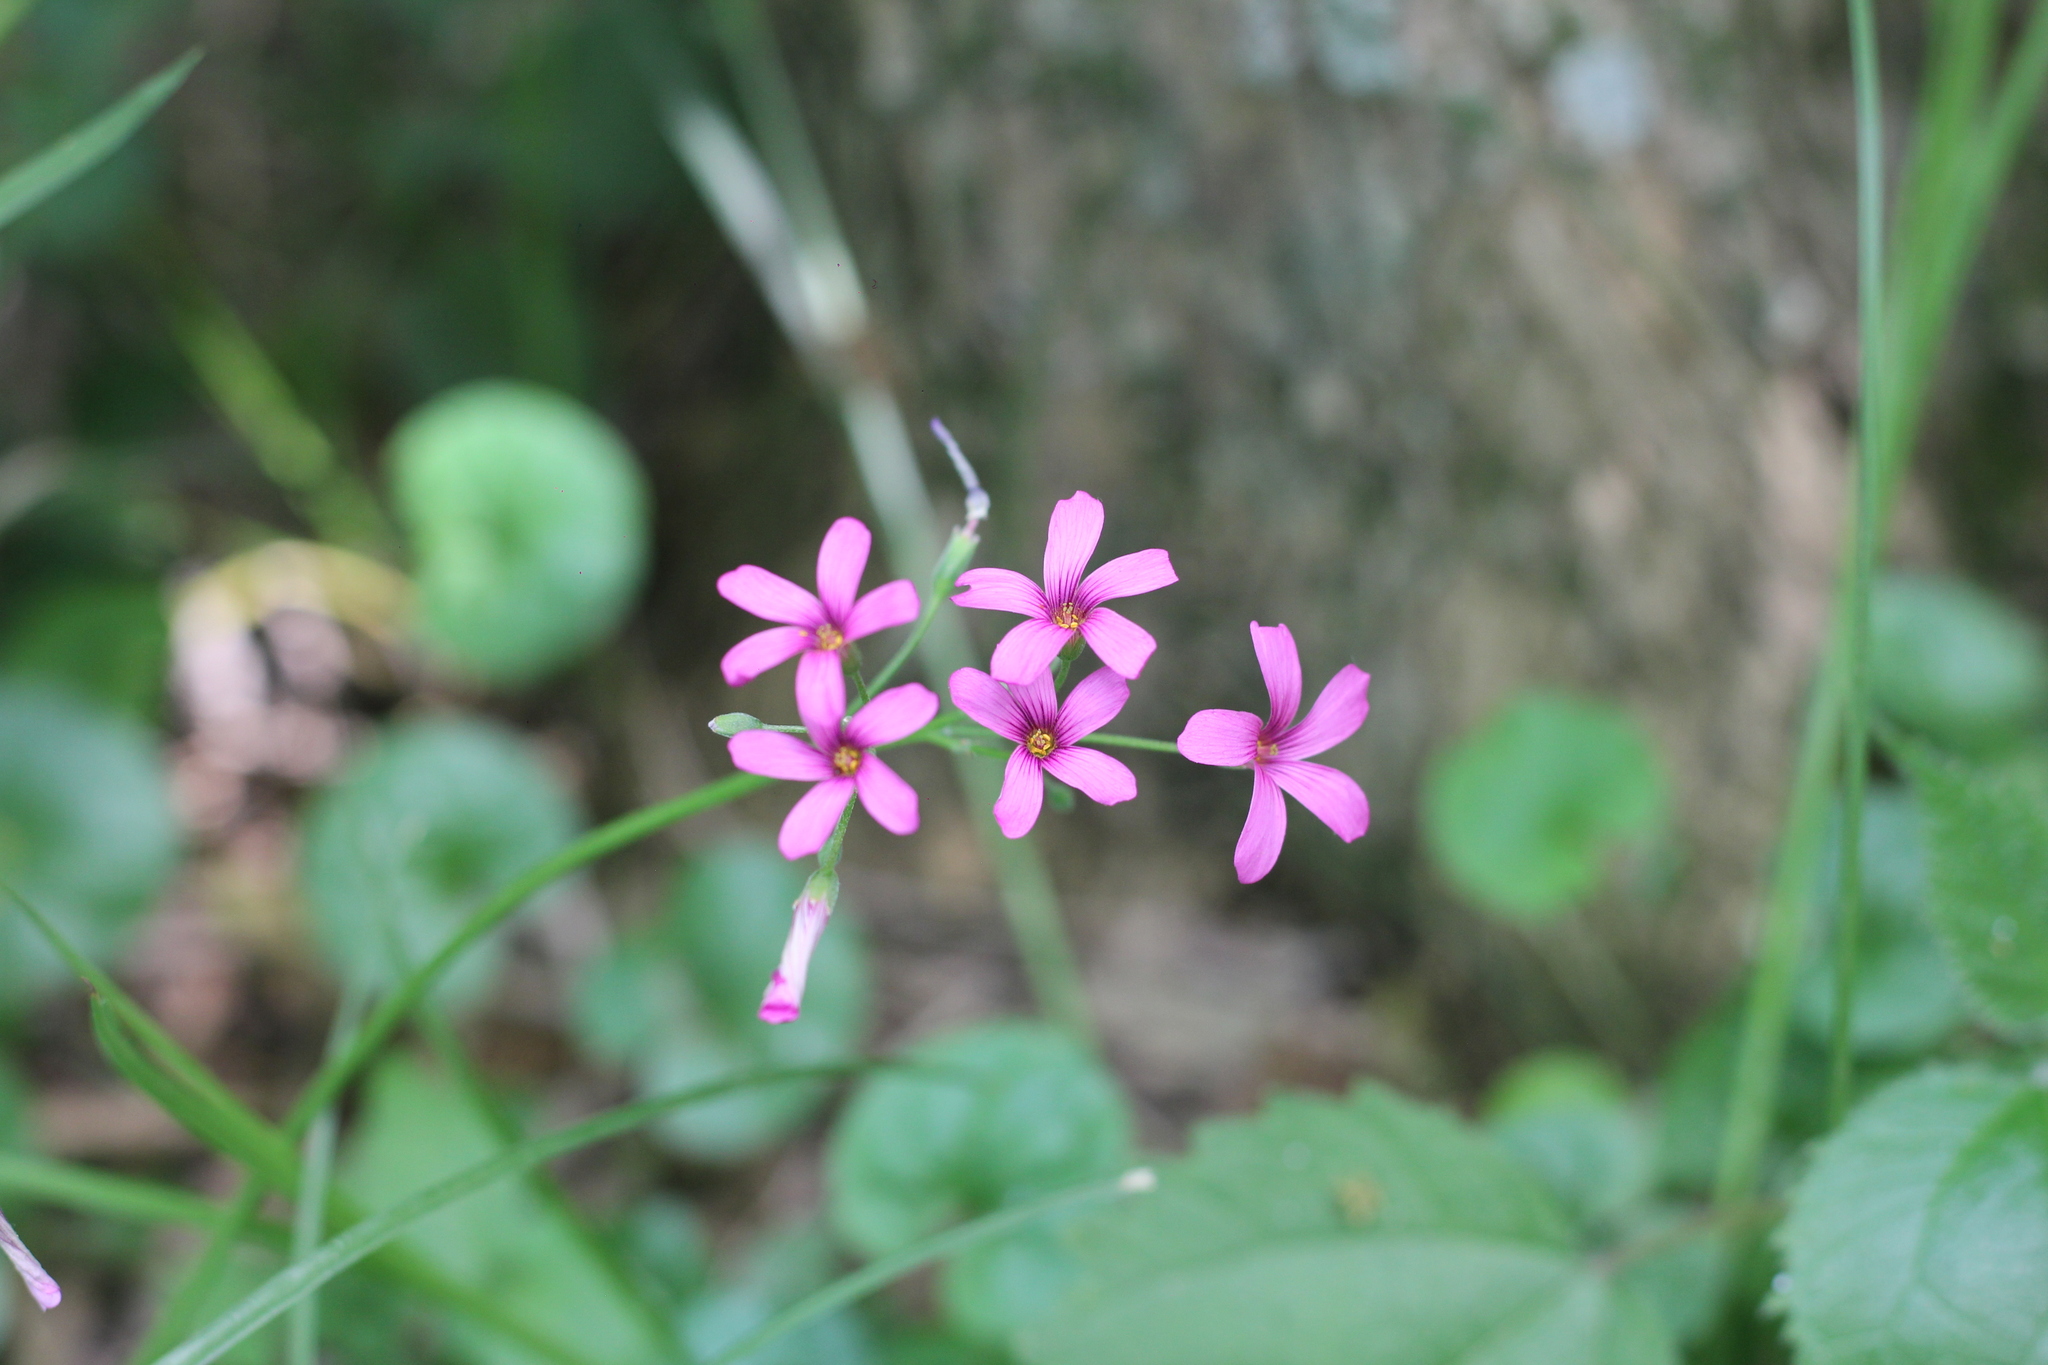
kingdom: Plantae
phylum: Tracheophyta
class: Magnoliopsida
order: Oxalidales
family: Oxalidaceae
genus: Oxalis
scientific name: Oxalis articulata
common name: Pink-sorrel
